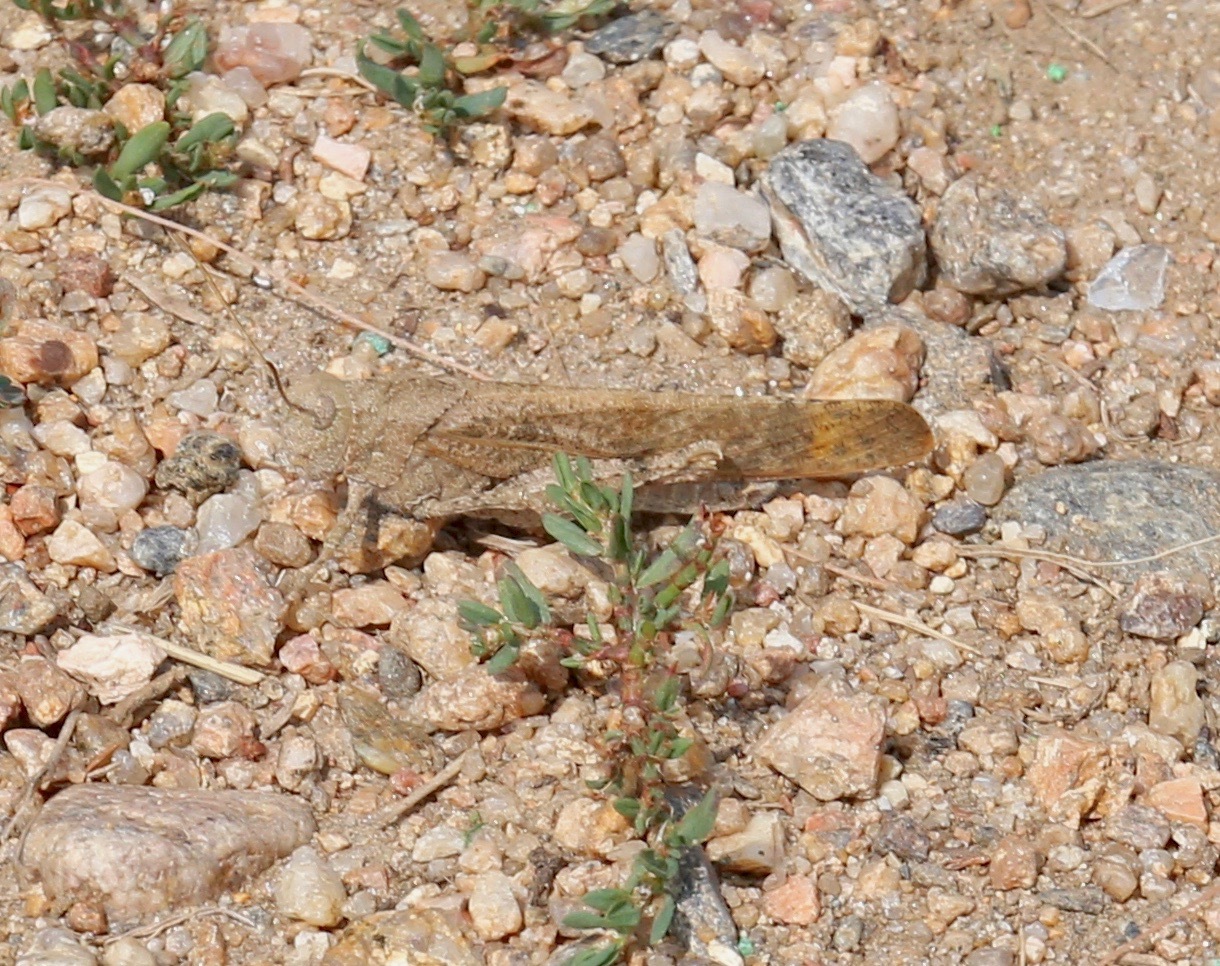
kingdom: Animalia
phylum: Arthropoda
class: Insecta
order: Orthoptera
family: Acrididae
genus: Dissosteira
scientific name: Dissosteira carolina
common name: Carolina grasshopper
